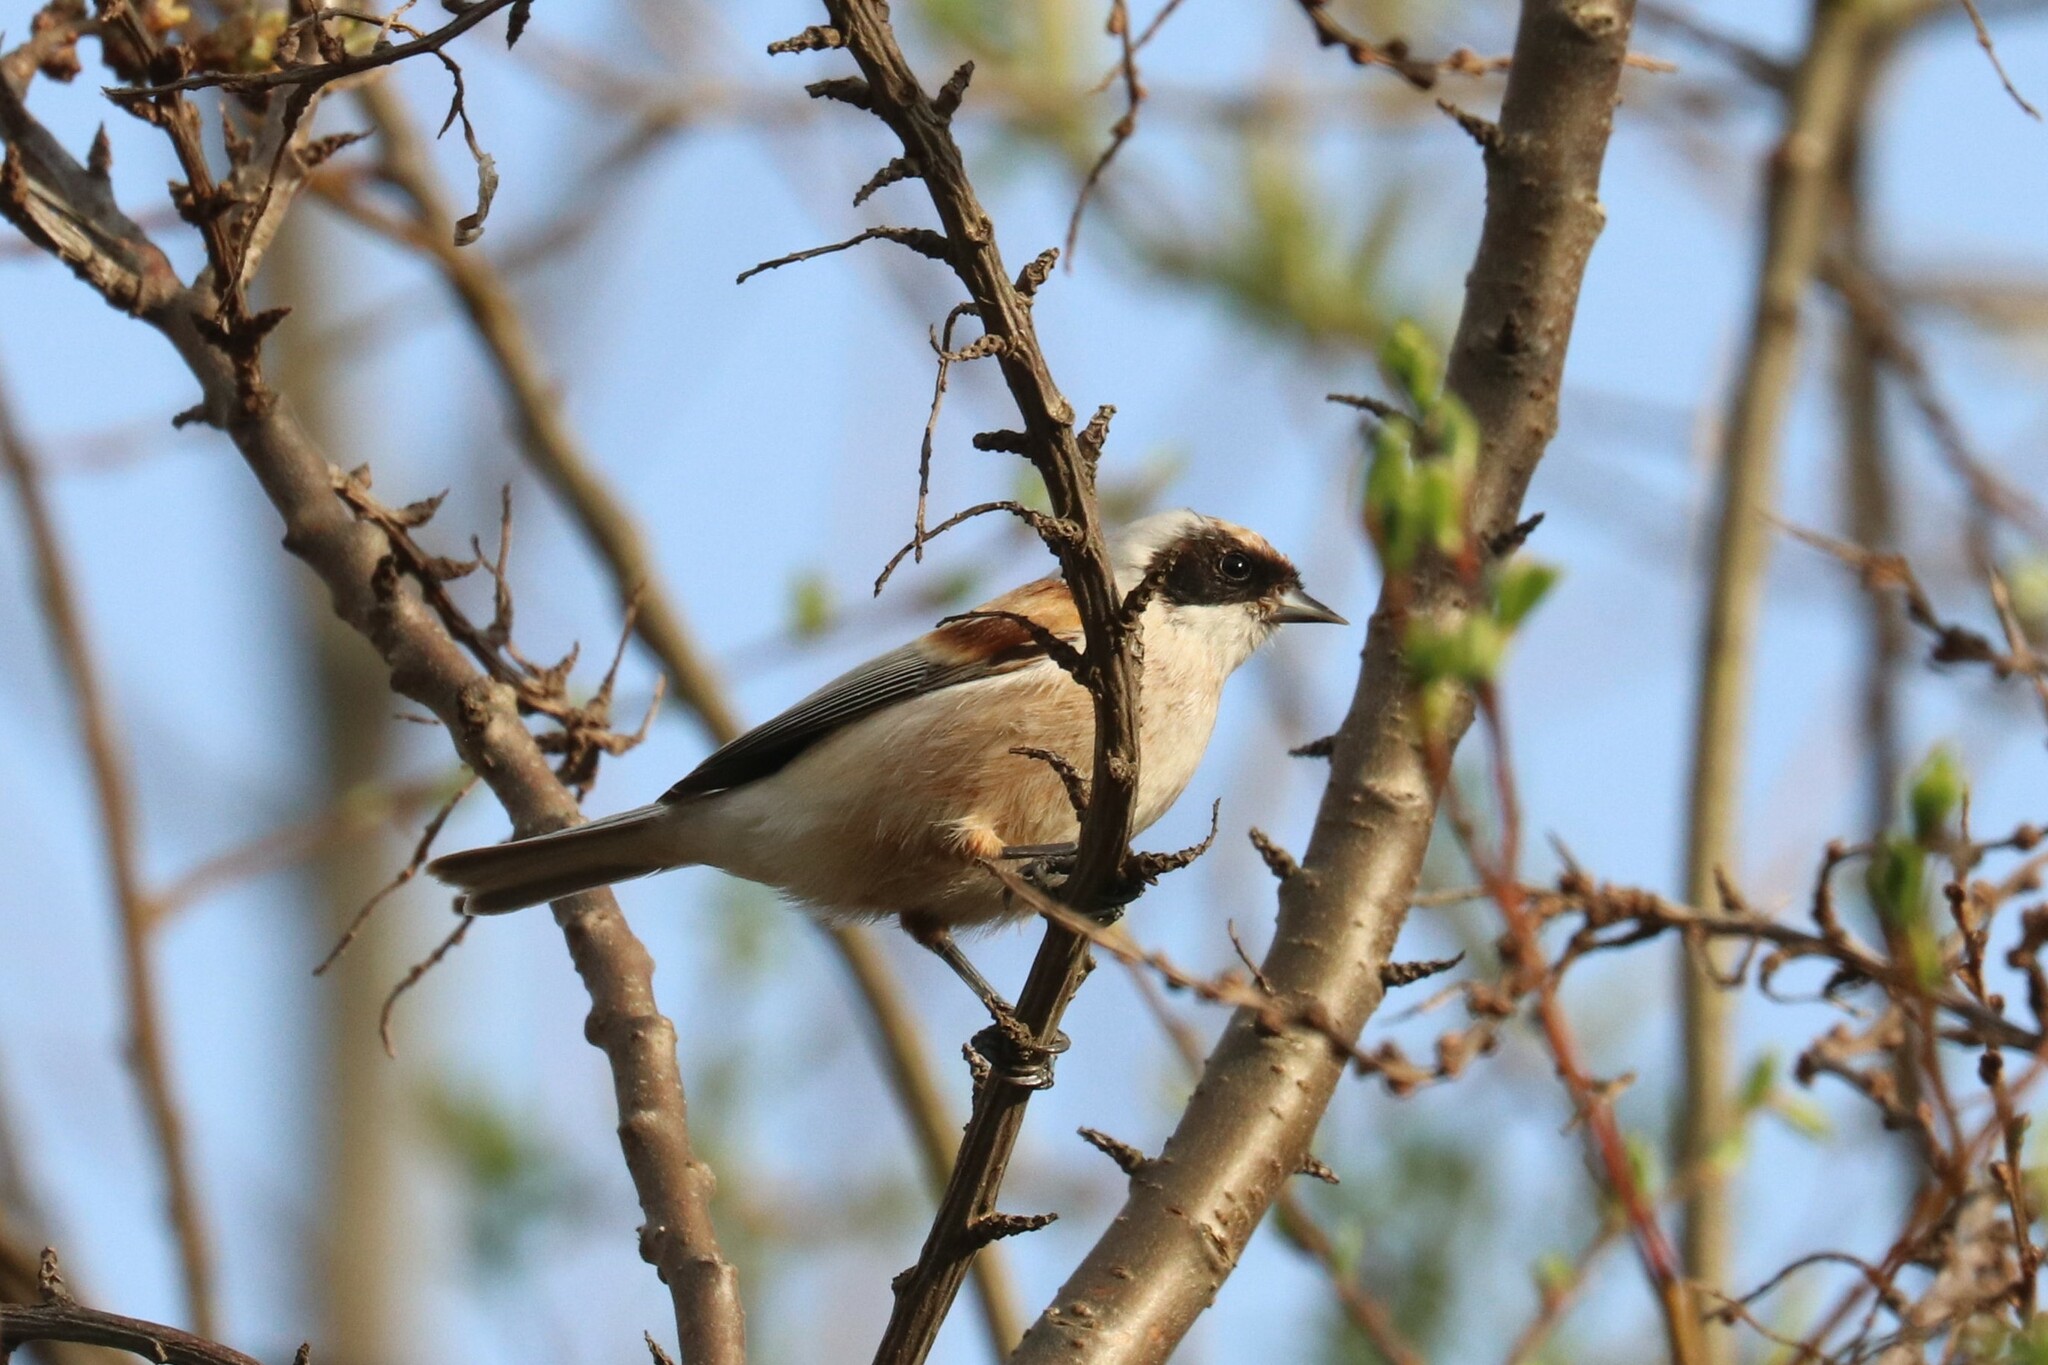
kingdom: Animalia
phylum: Chordata
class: Aves
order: Passeriformes
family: Remizidae
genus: Remiz
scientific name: Remiz pendulinus
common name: Eurasian penduline tit
